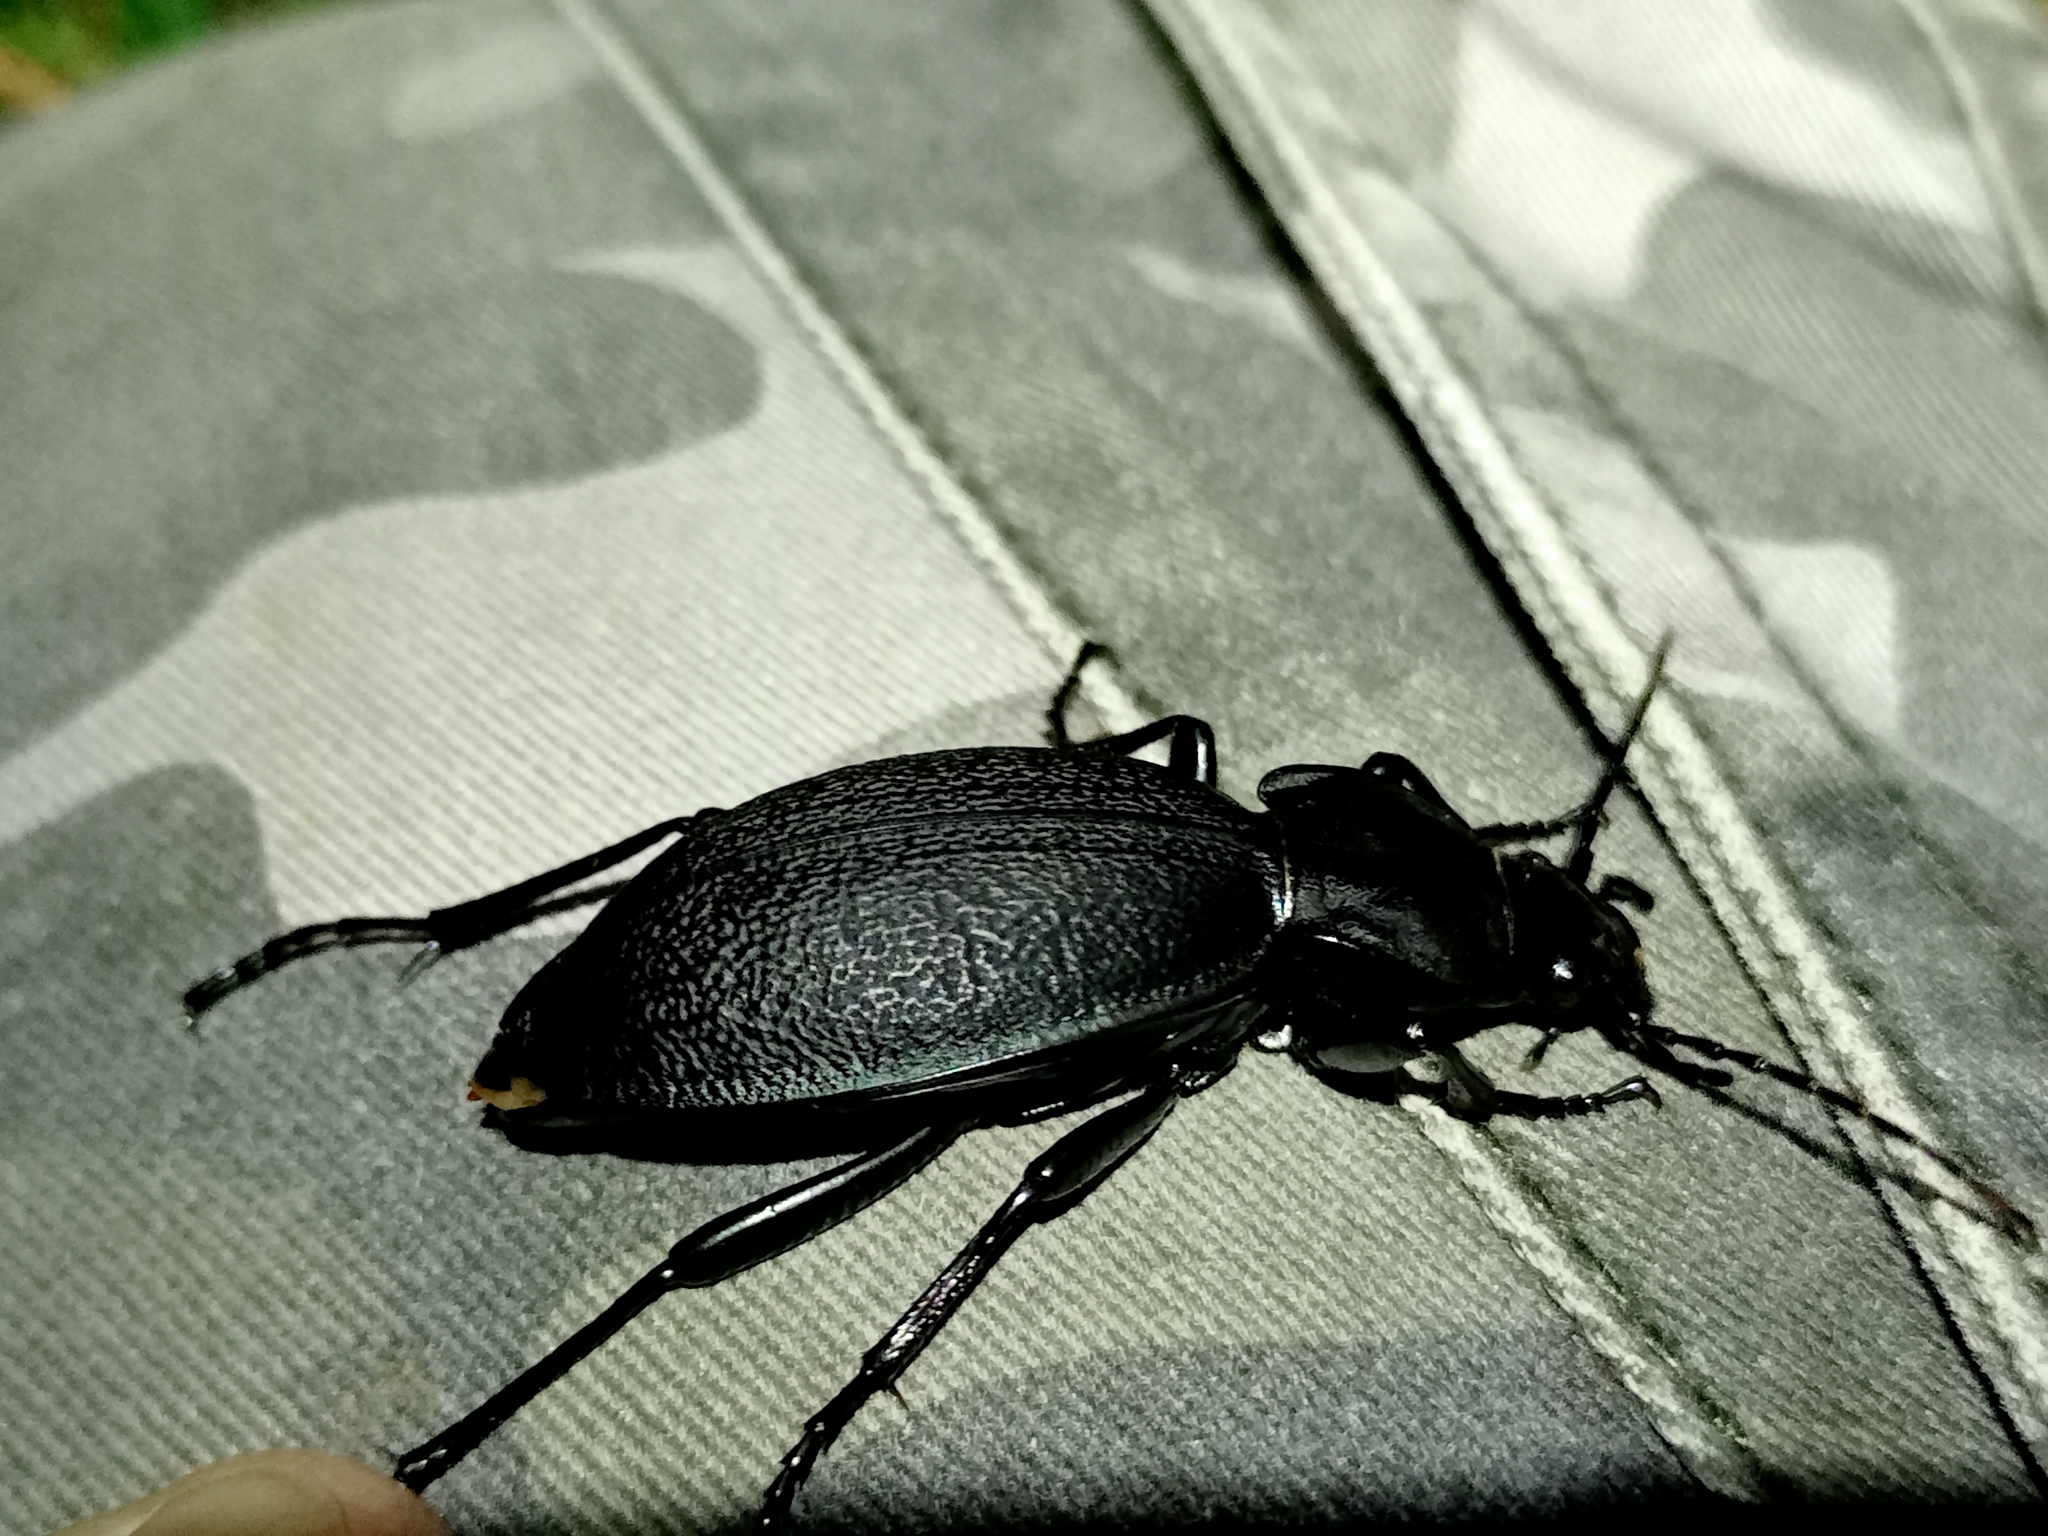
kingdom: Animalia
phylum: Arthropoda
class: Insecta
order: Coleoptera
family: Carabidae
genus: Carabus
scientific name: Carabus coriaceus
